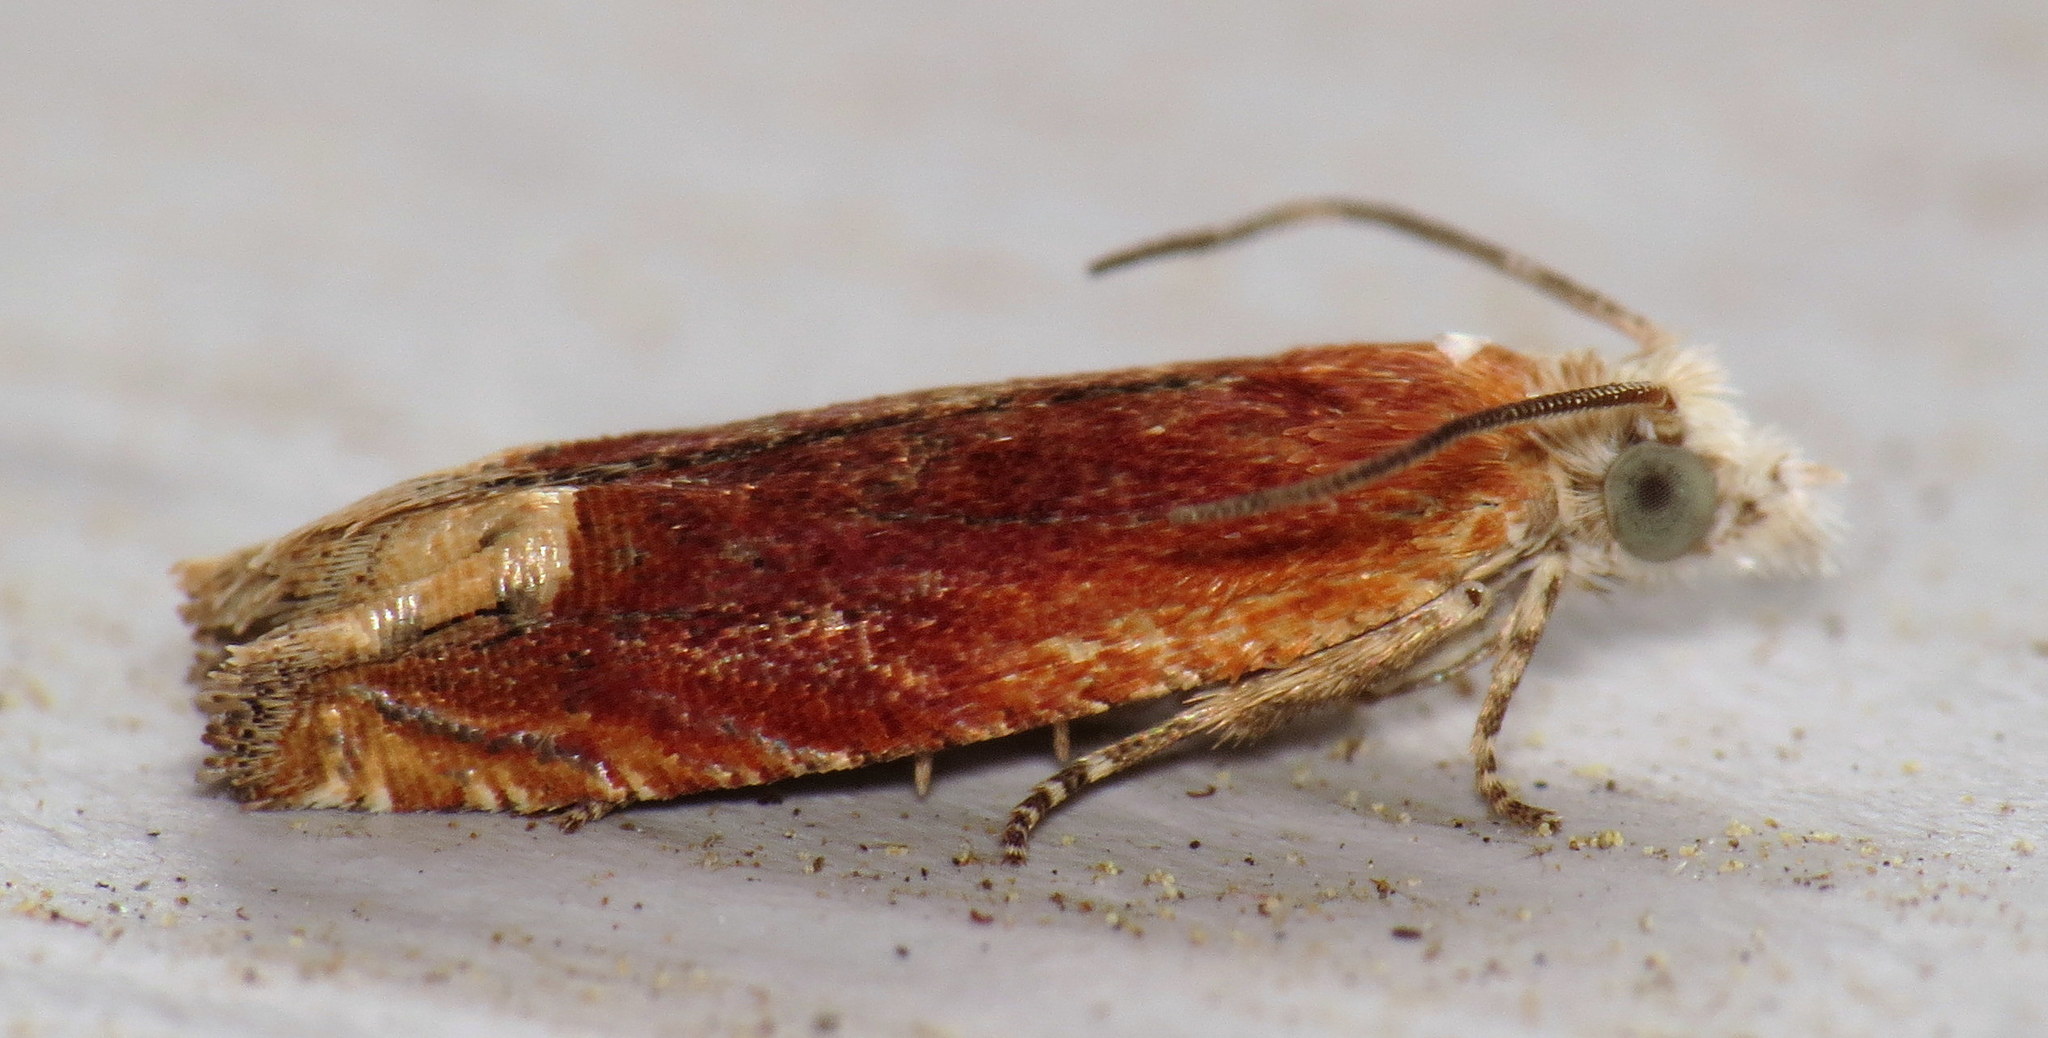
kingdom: Animalia
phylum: Arthropoda
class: Insecta
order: Lepidoptera
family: Tortricidae
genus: Eucosma
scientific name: Eucosma raracana
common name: Reddish eucosma moth
